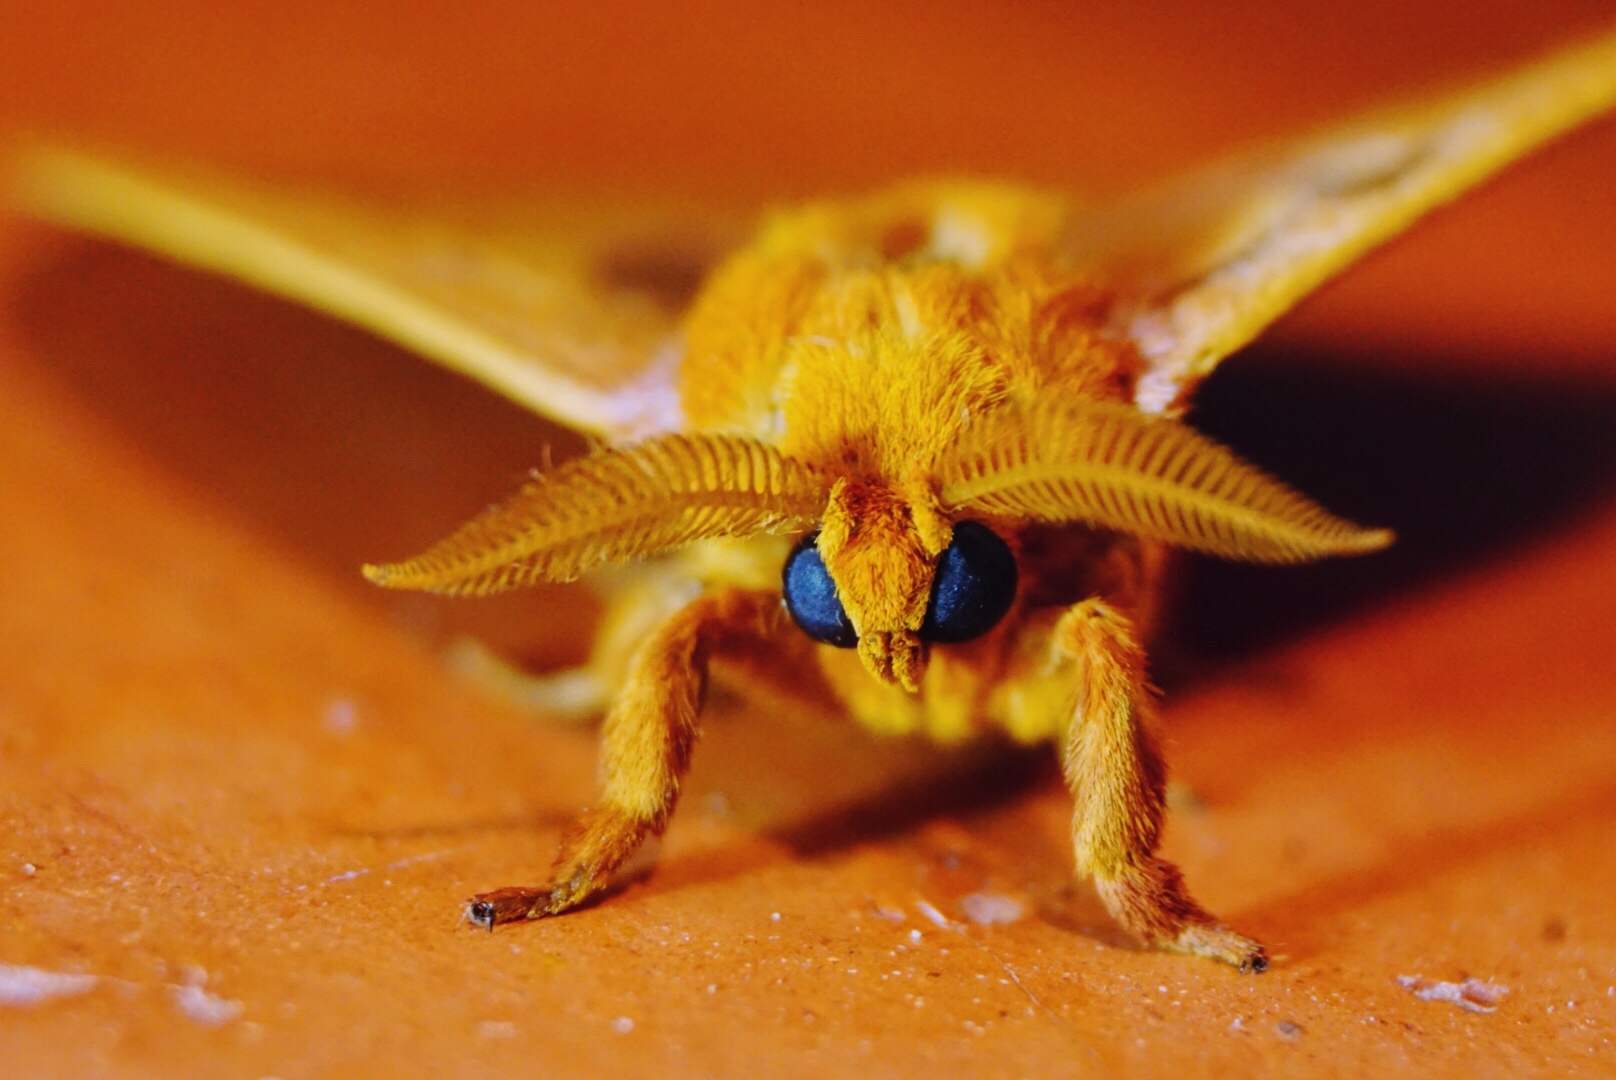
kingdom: Animalia
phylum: Arthropoda
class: Insecta
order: Lepidoptera
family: Saturniidae
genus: Automeris
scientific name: Automeris io
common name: Io moth
